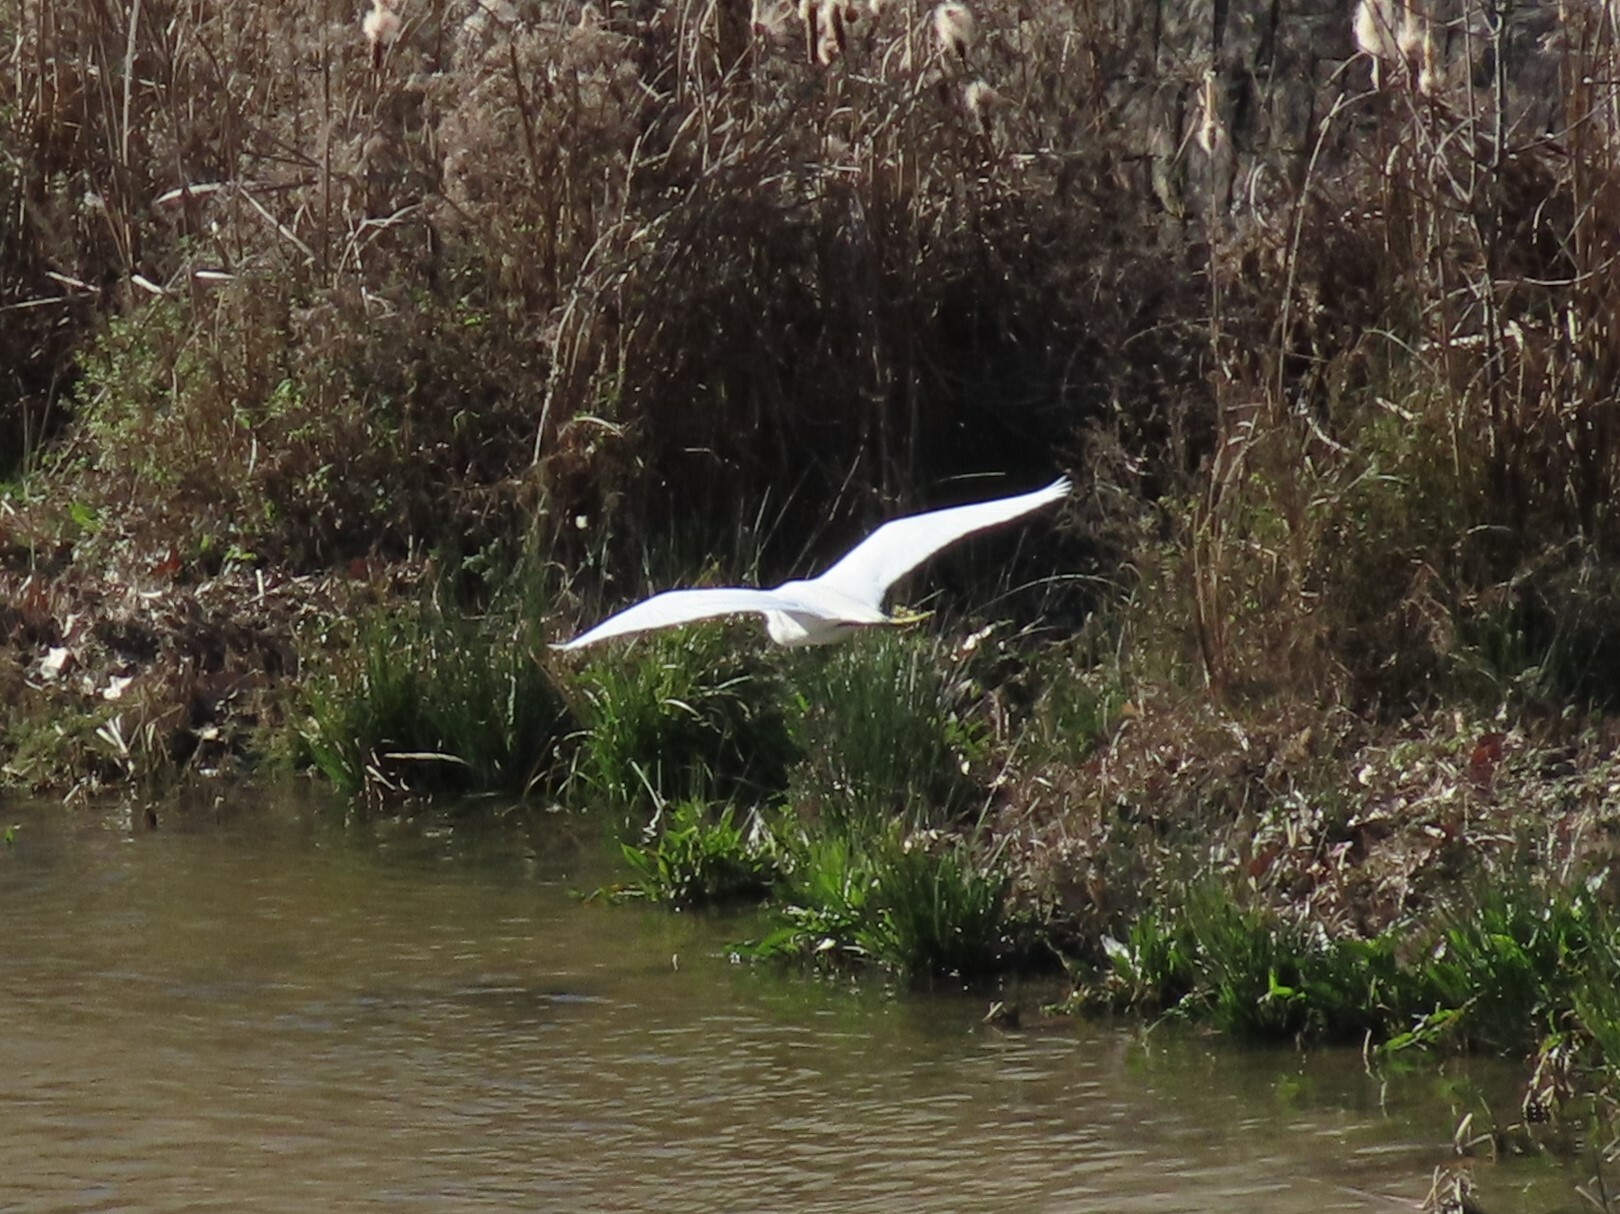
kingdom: Animalia
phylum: Chordata
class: Aves
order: Pelecaniformes
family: Ardeidae
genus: Egretta
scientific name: Egretta garzetta
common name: Little egret
